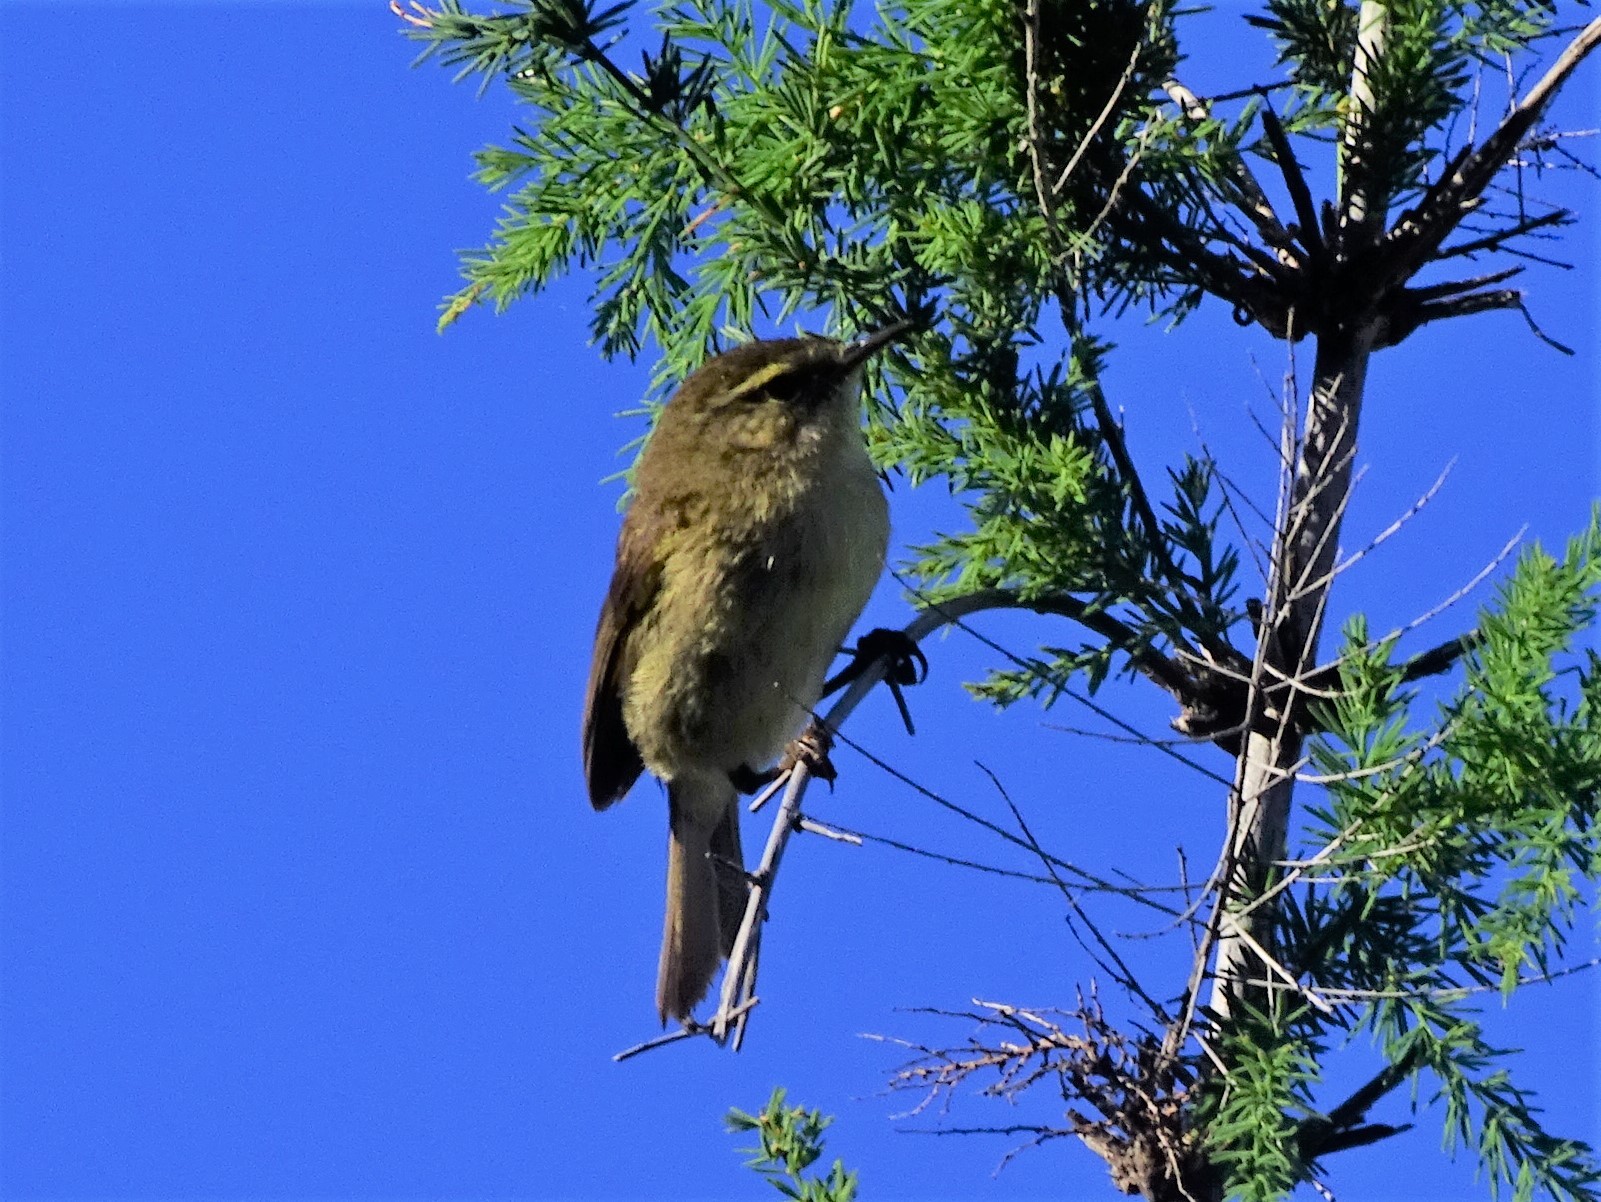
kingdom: Animalia
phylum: Chordata
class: Aves
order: Passeriformes
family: Phylloscopidae
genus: Phylloscopus
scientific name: Phylloscopus canariensis
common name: Canary islands chiffchaff
